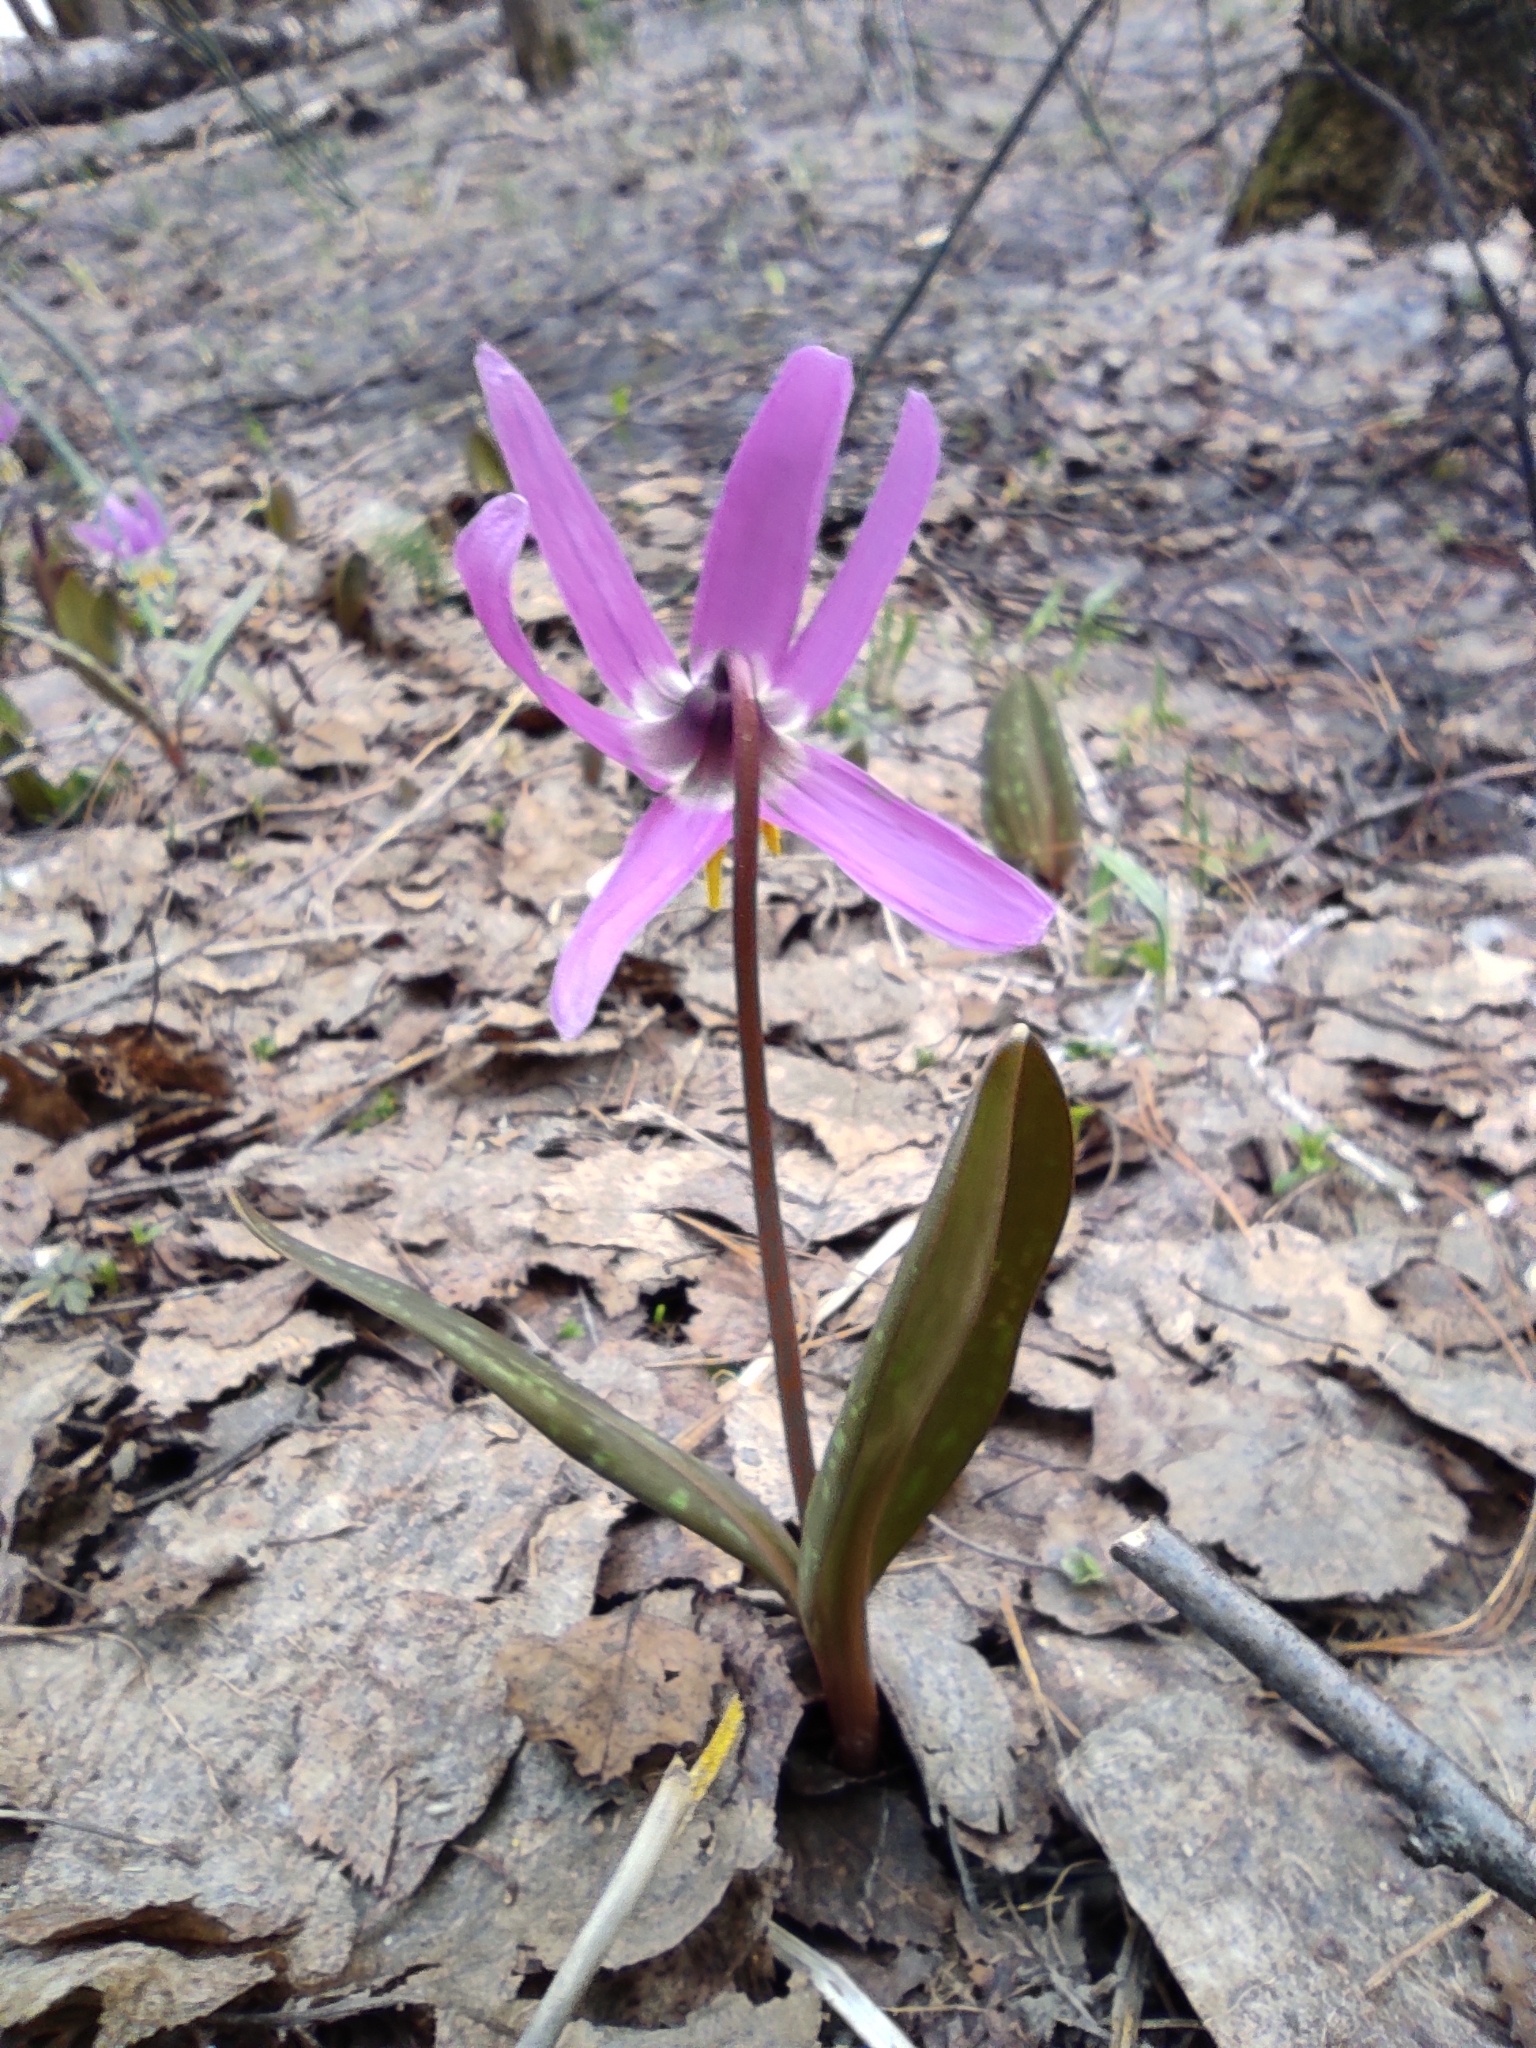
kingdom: Plantae
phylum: Tracheophyta
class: Liliopsida
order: Liliales
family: Liliaceae
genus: Erythronium
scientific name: Erythronium sibiricum
